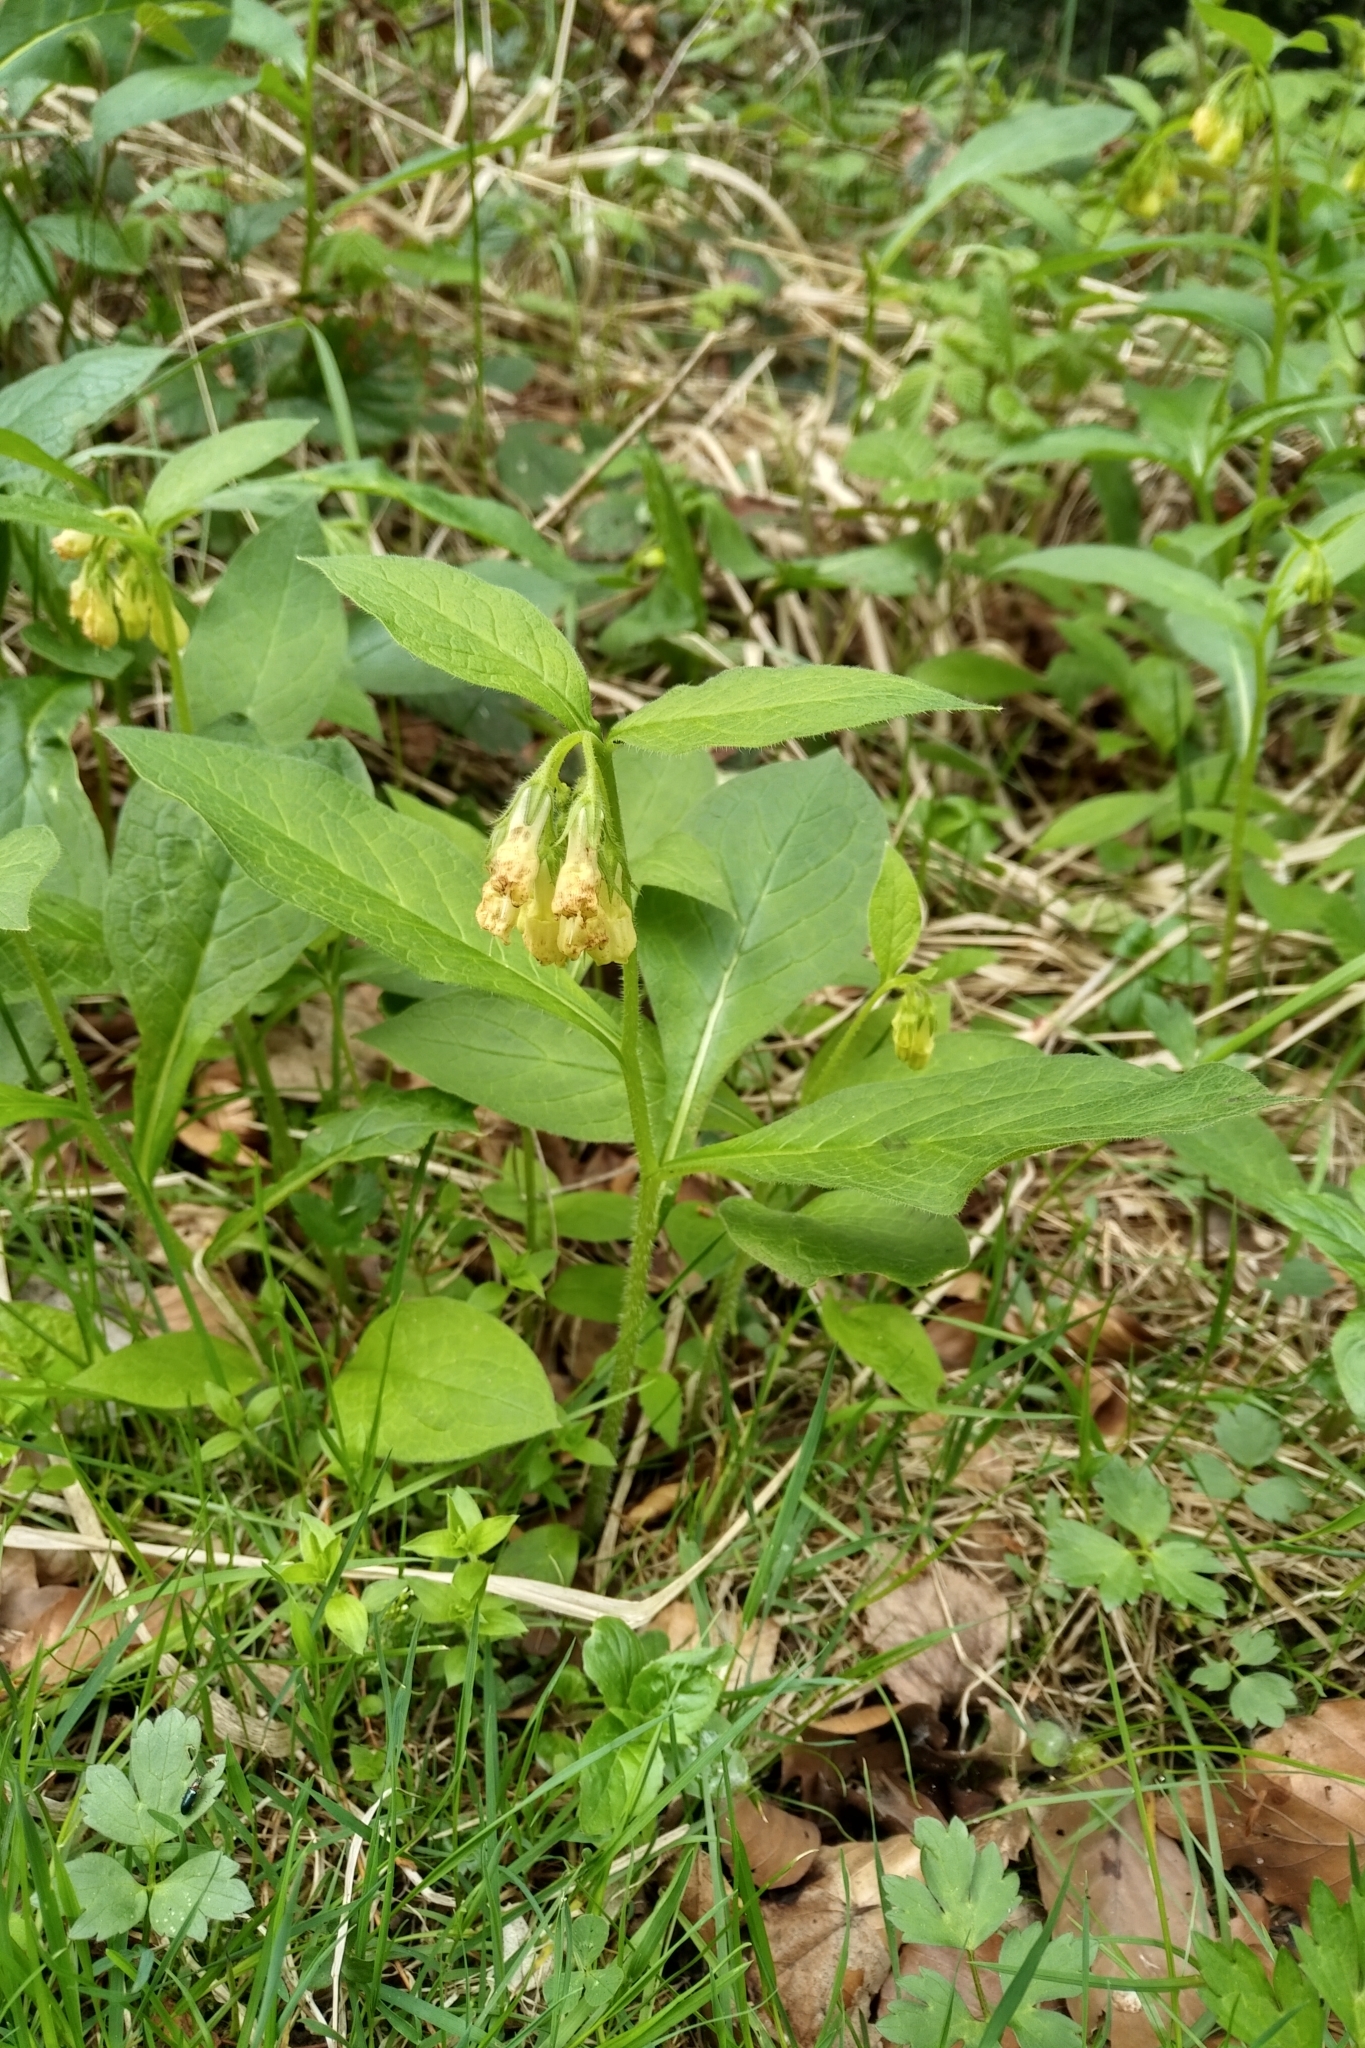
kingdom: Plantae
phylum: Tracheophyta
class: Magnoliopsida
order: Boraginales
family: Boraginaceae
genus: Symphytum
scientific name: Symphytum tuberosum
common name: Tuberous comfrey
